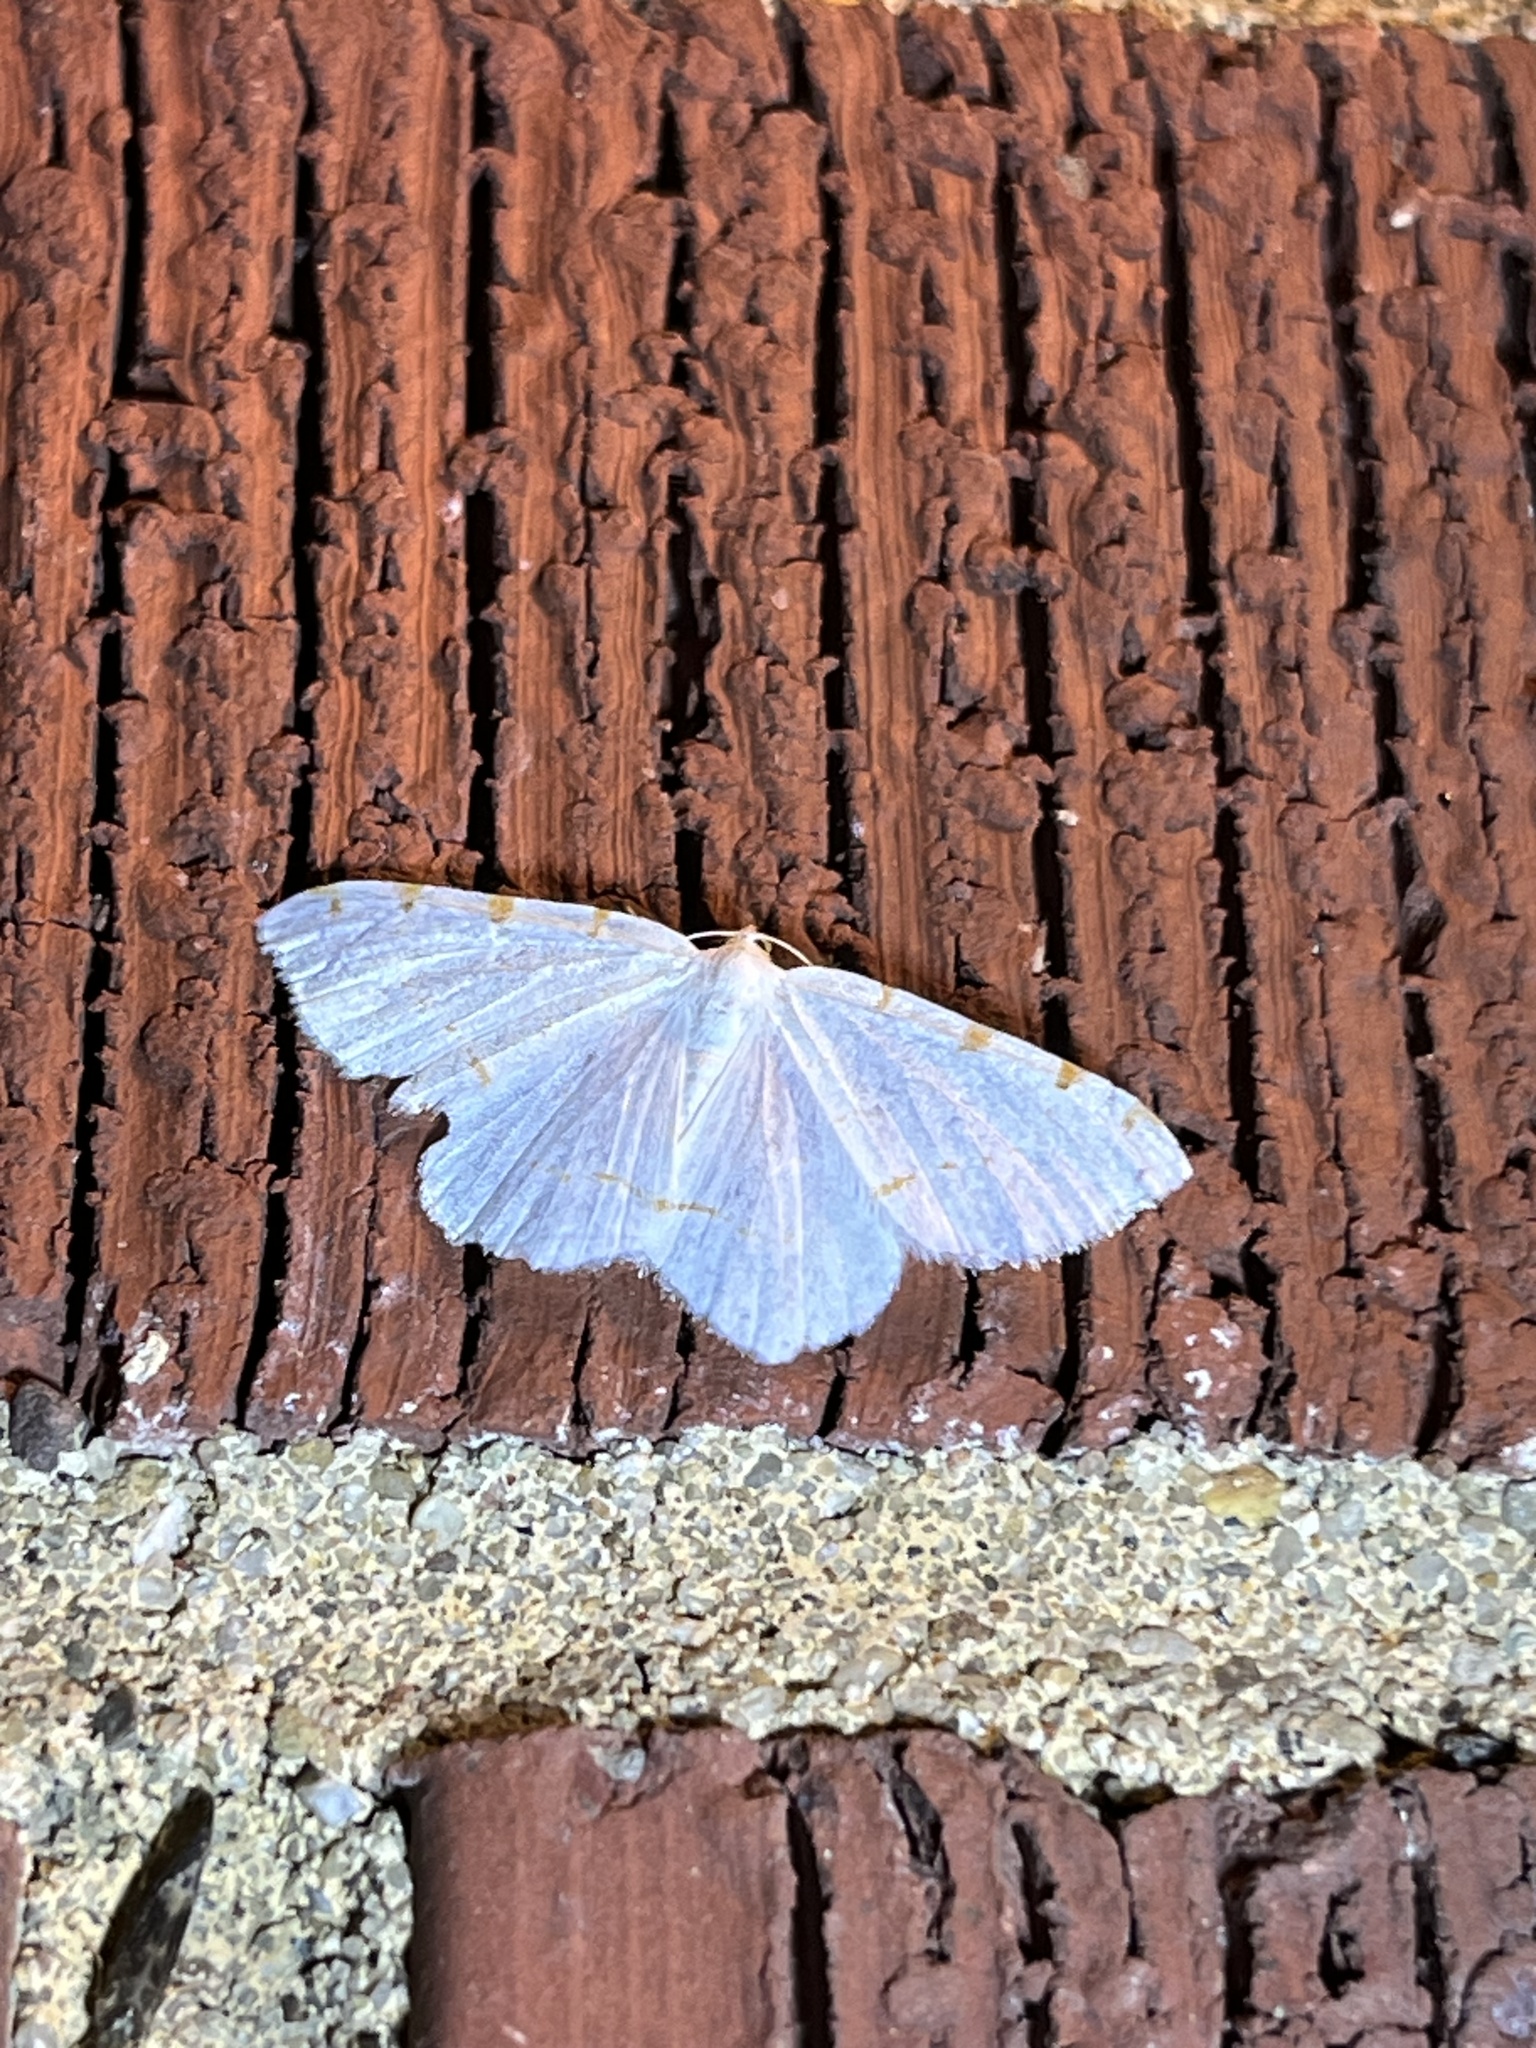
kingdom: Animalia
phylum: Arthropoda
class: Insecta
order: Lepidoptera
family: Geometridae
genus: Macaria
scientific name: Macaria pustularia
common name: Lesser maple spanworm moth
